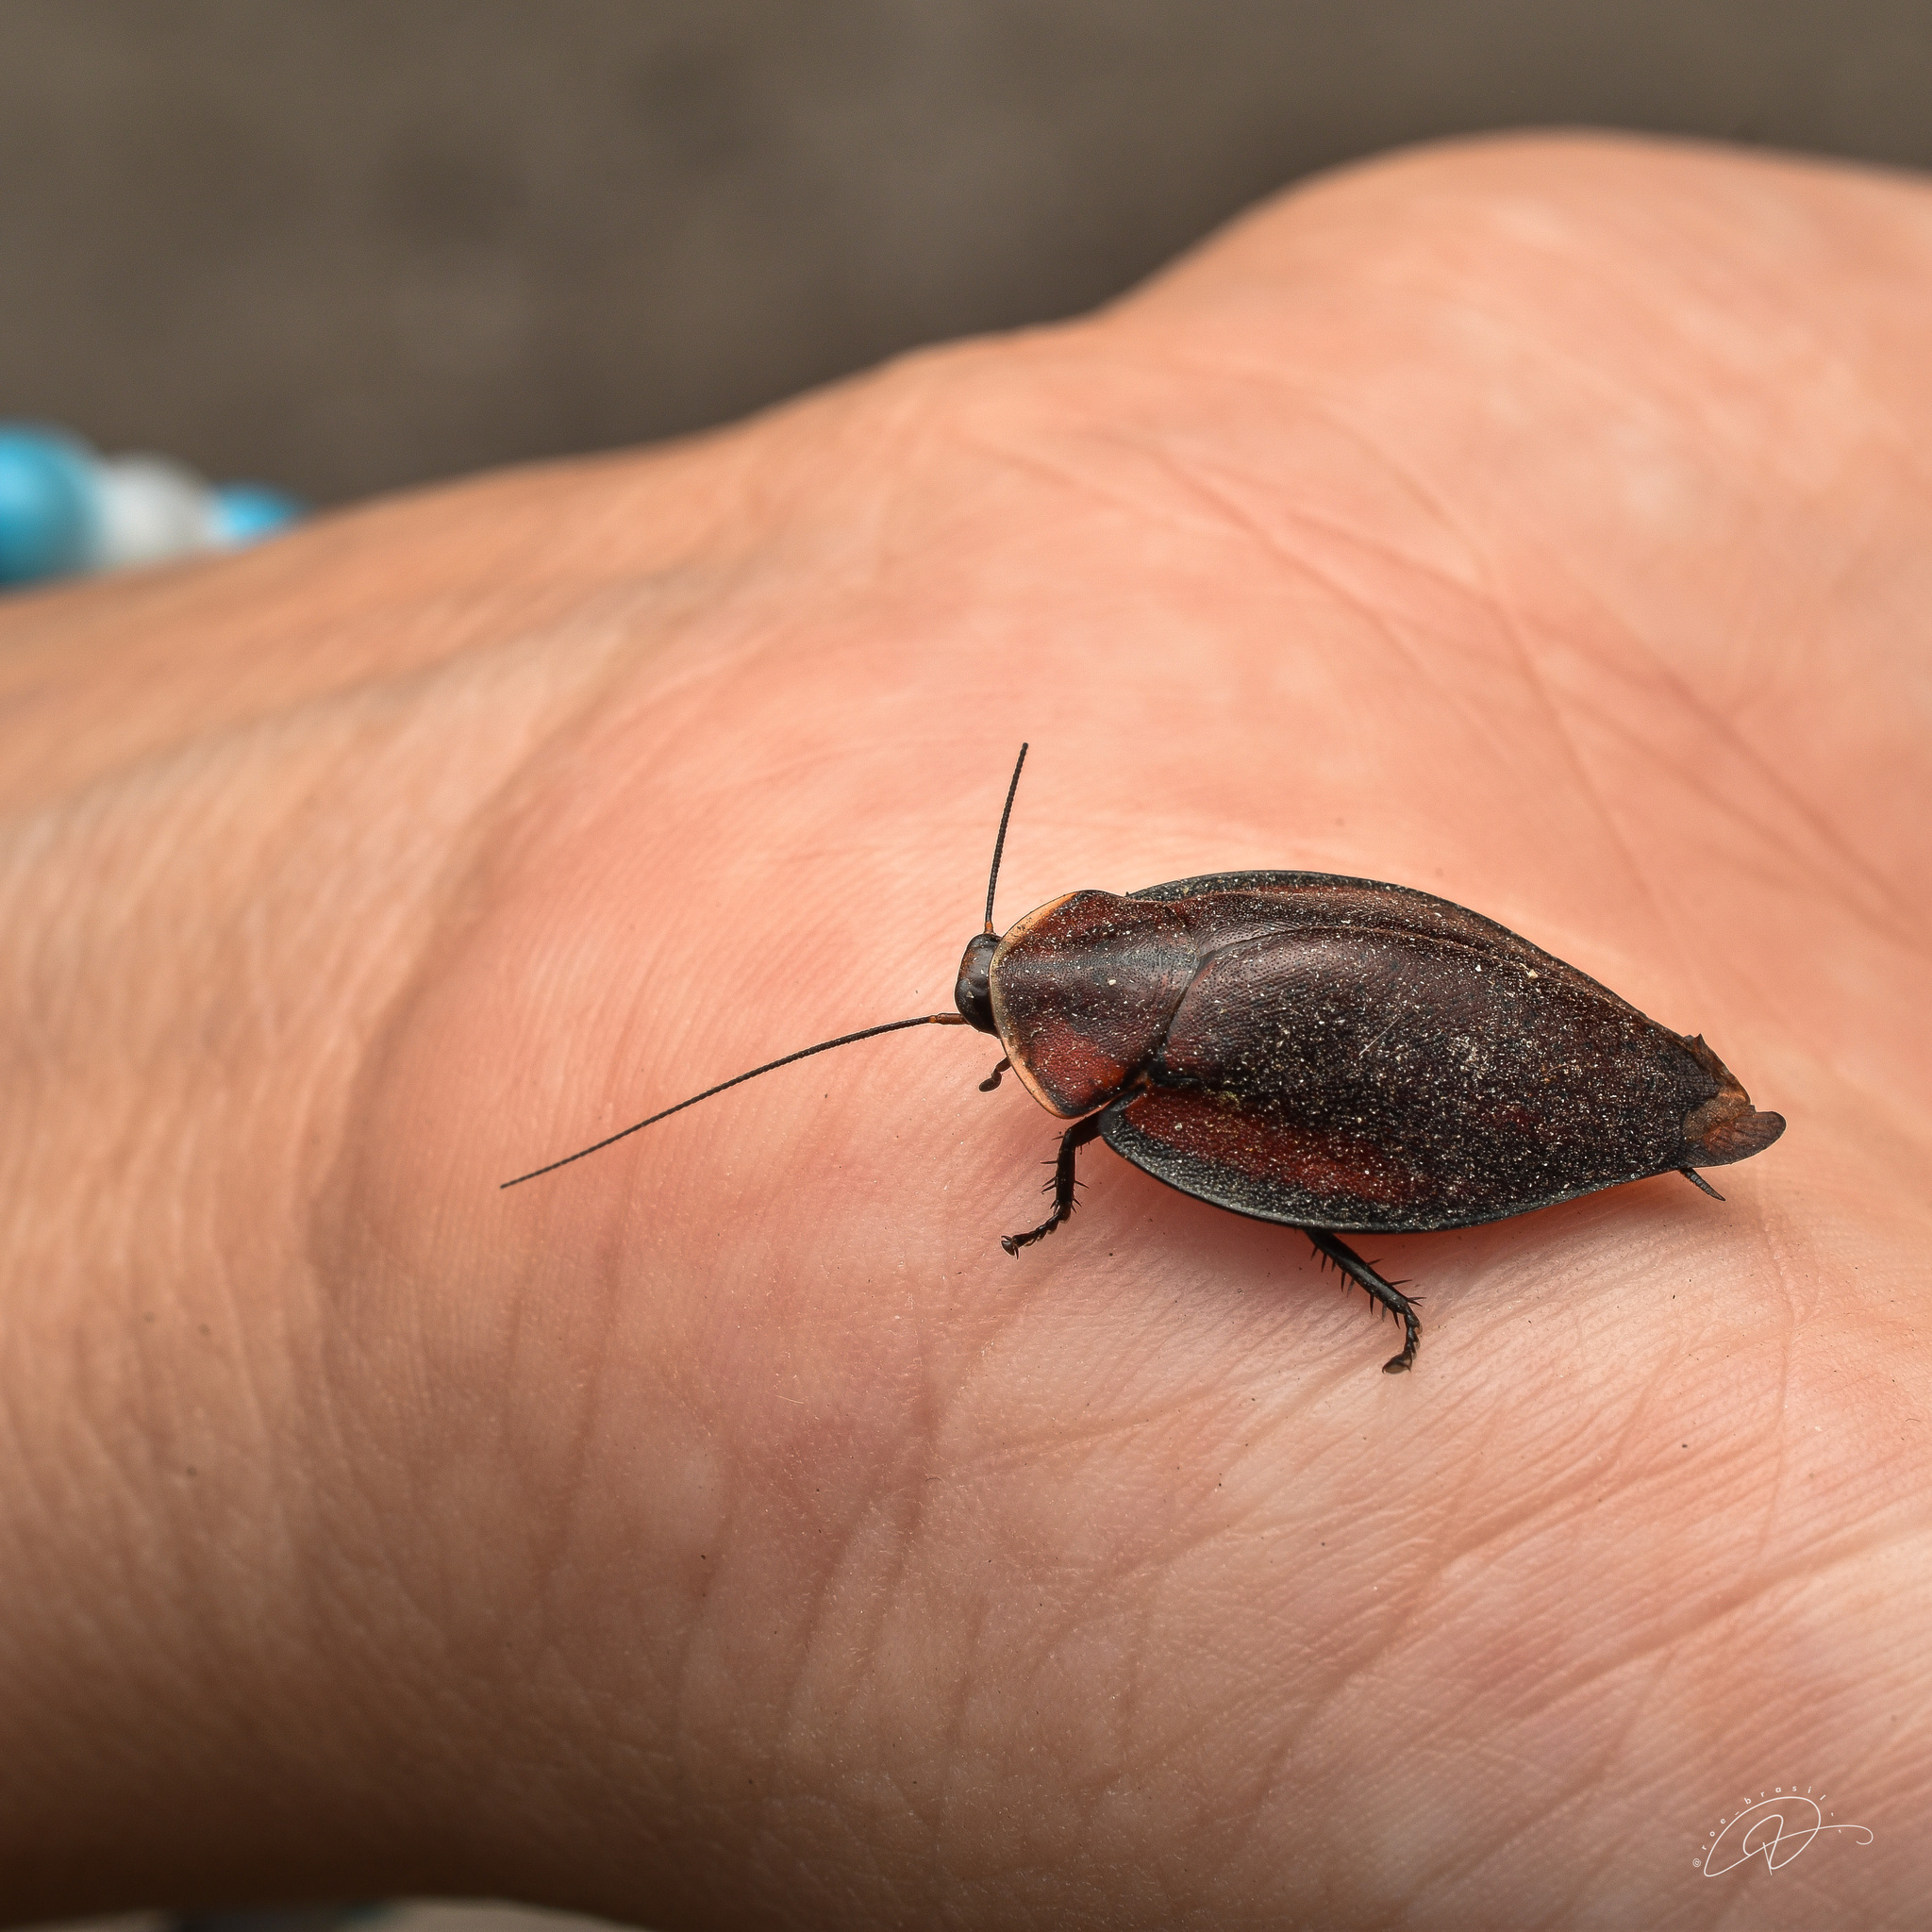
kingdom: Animalia
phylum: Arthropoda
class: Insecta
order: Blattodea
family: Blaberidae
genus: Phoraspis
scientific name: Phoraspis picta
